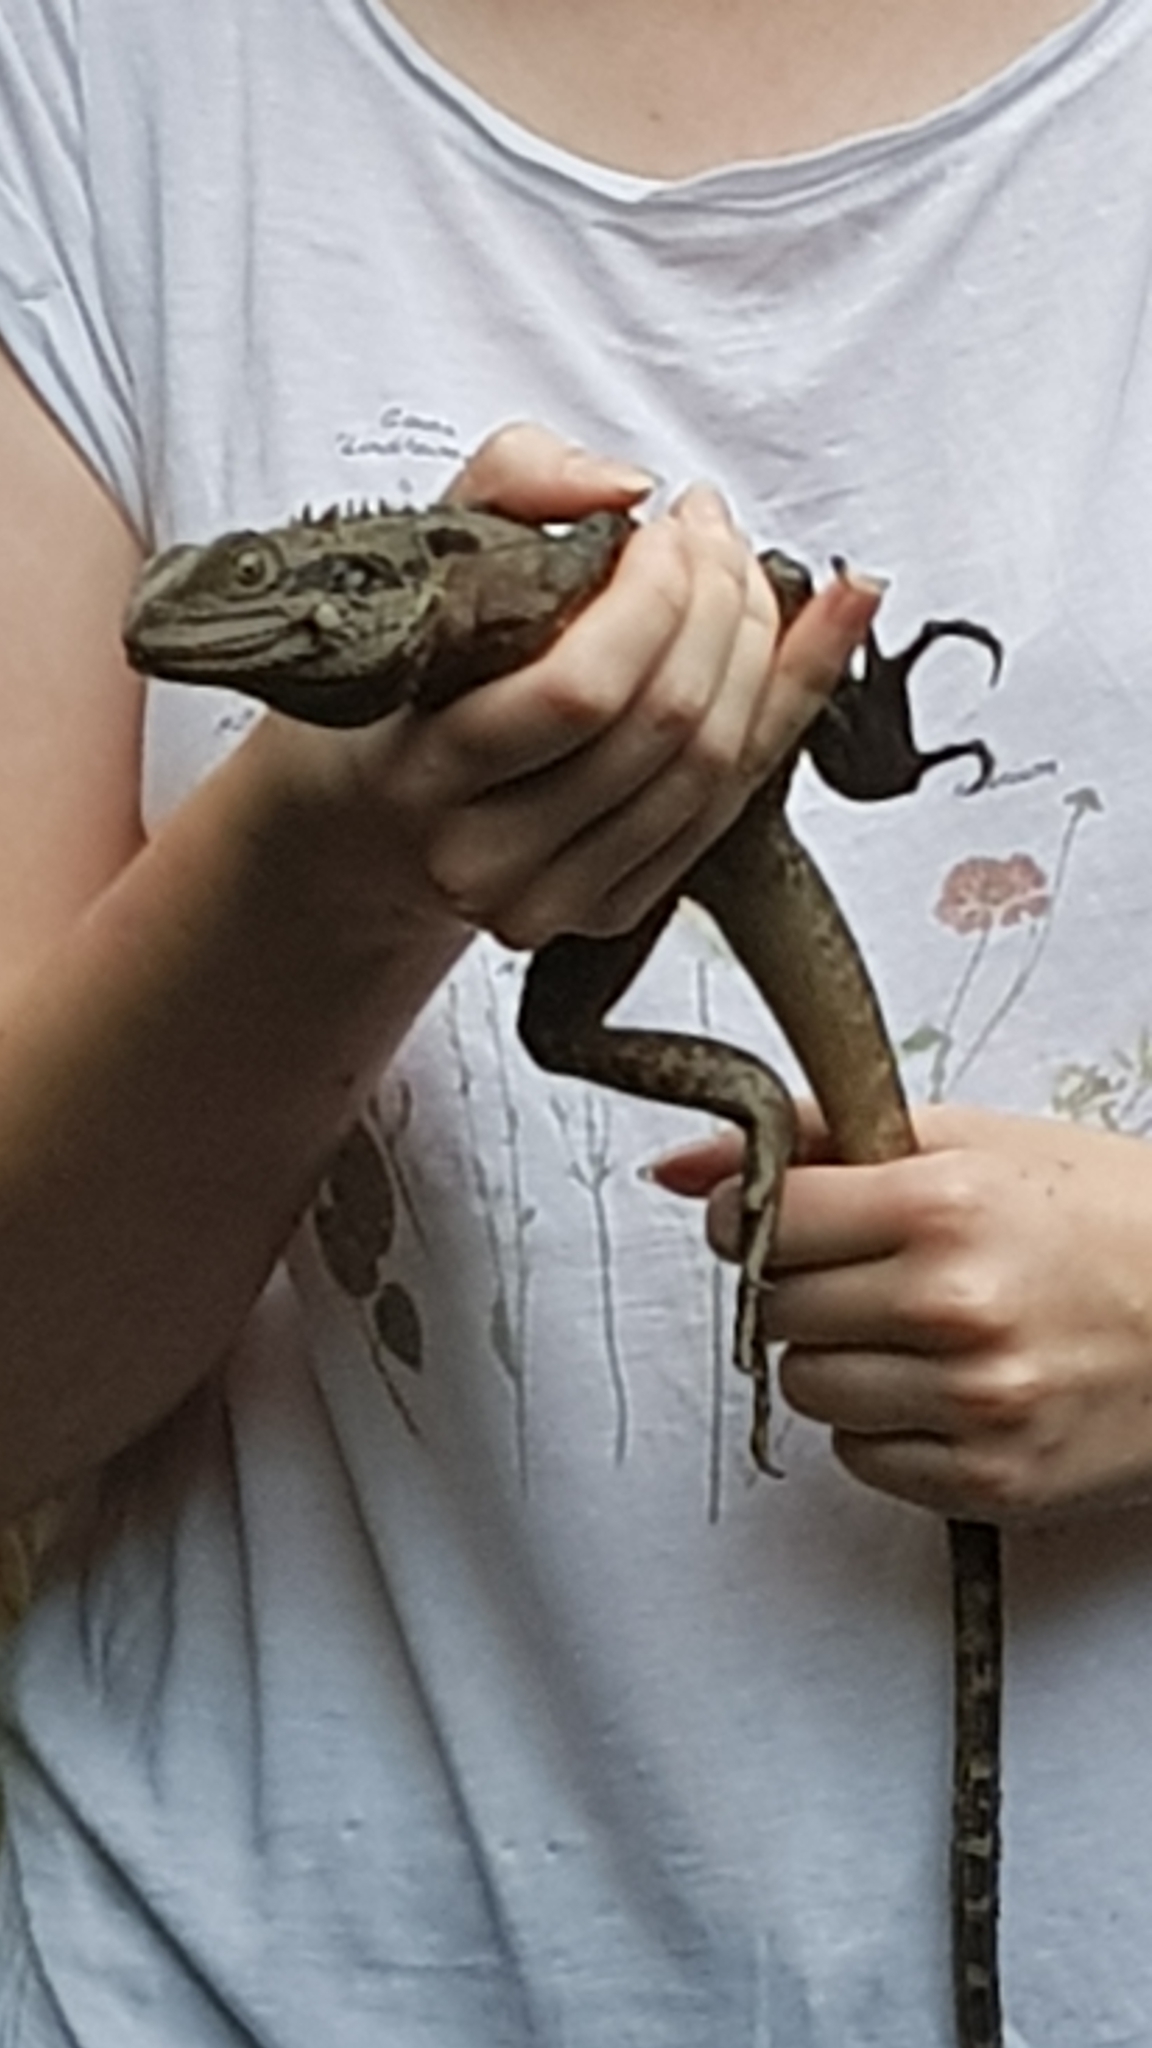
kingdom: Animalia
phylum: Chordata
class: Squamata
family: Agamidae
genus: Intellagama
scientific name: Intellagama lesueurii
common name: Eastern water dragon
